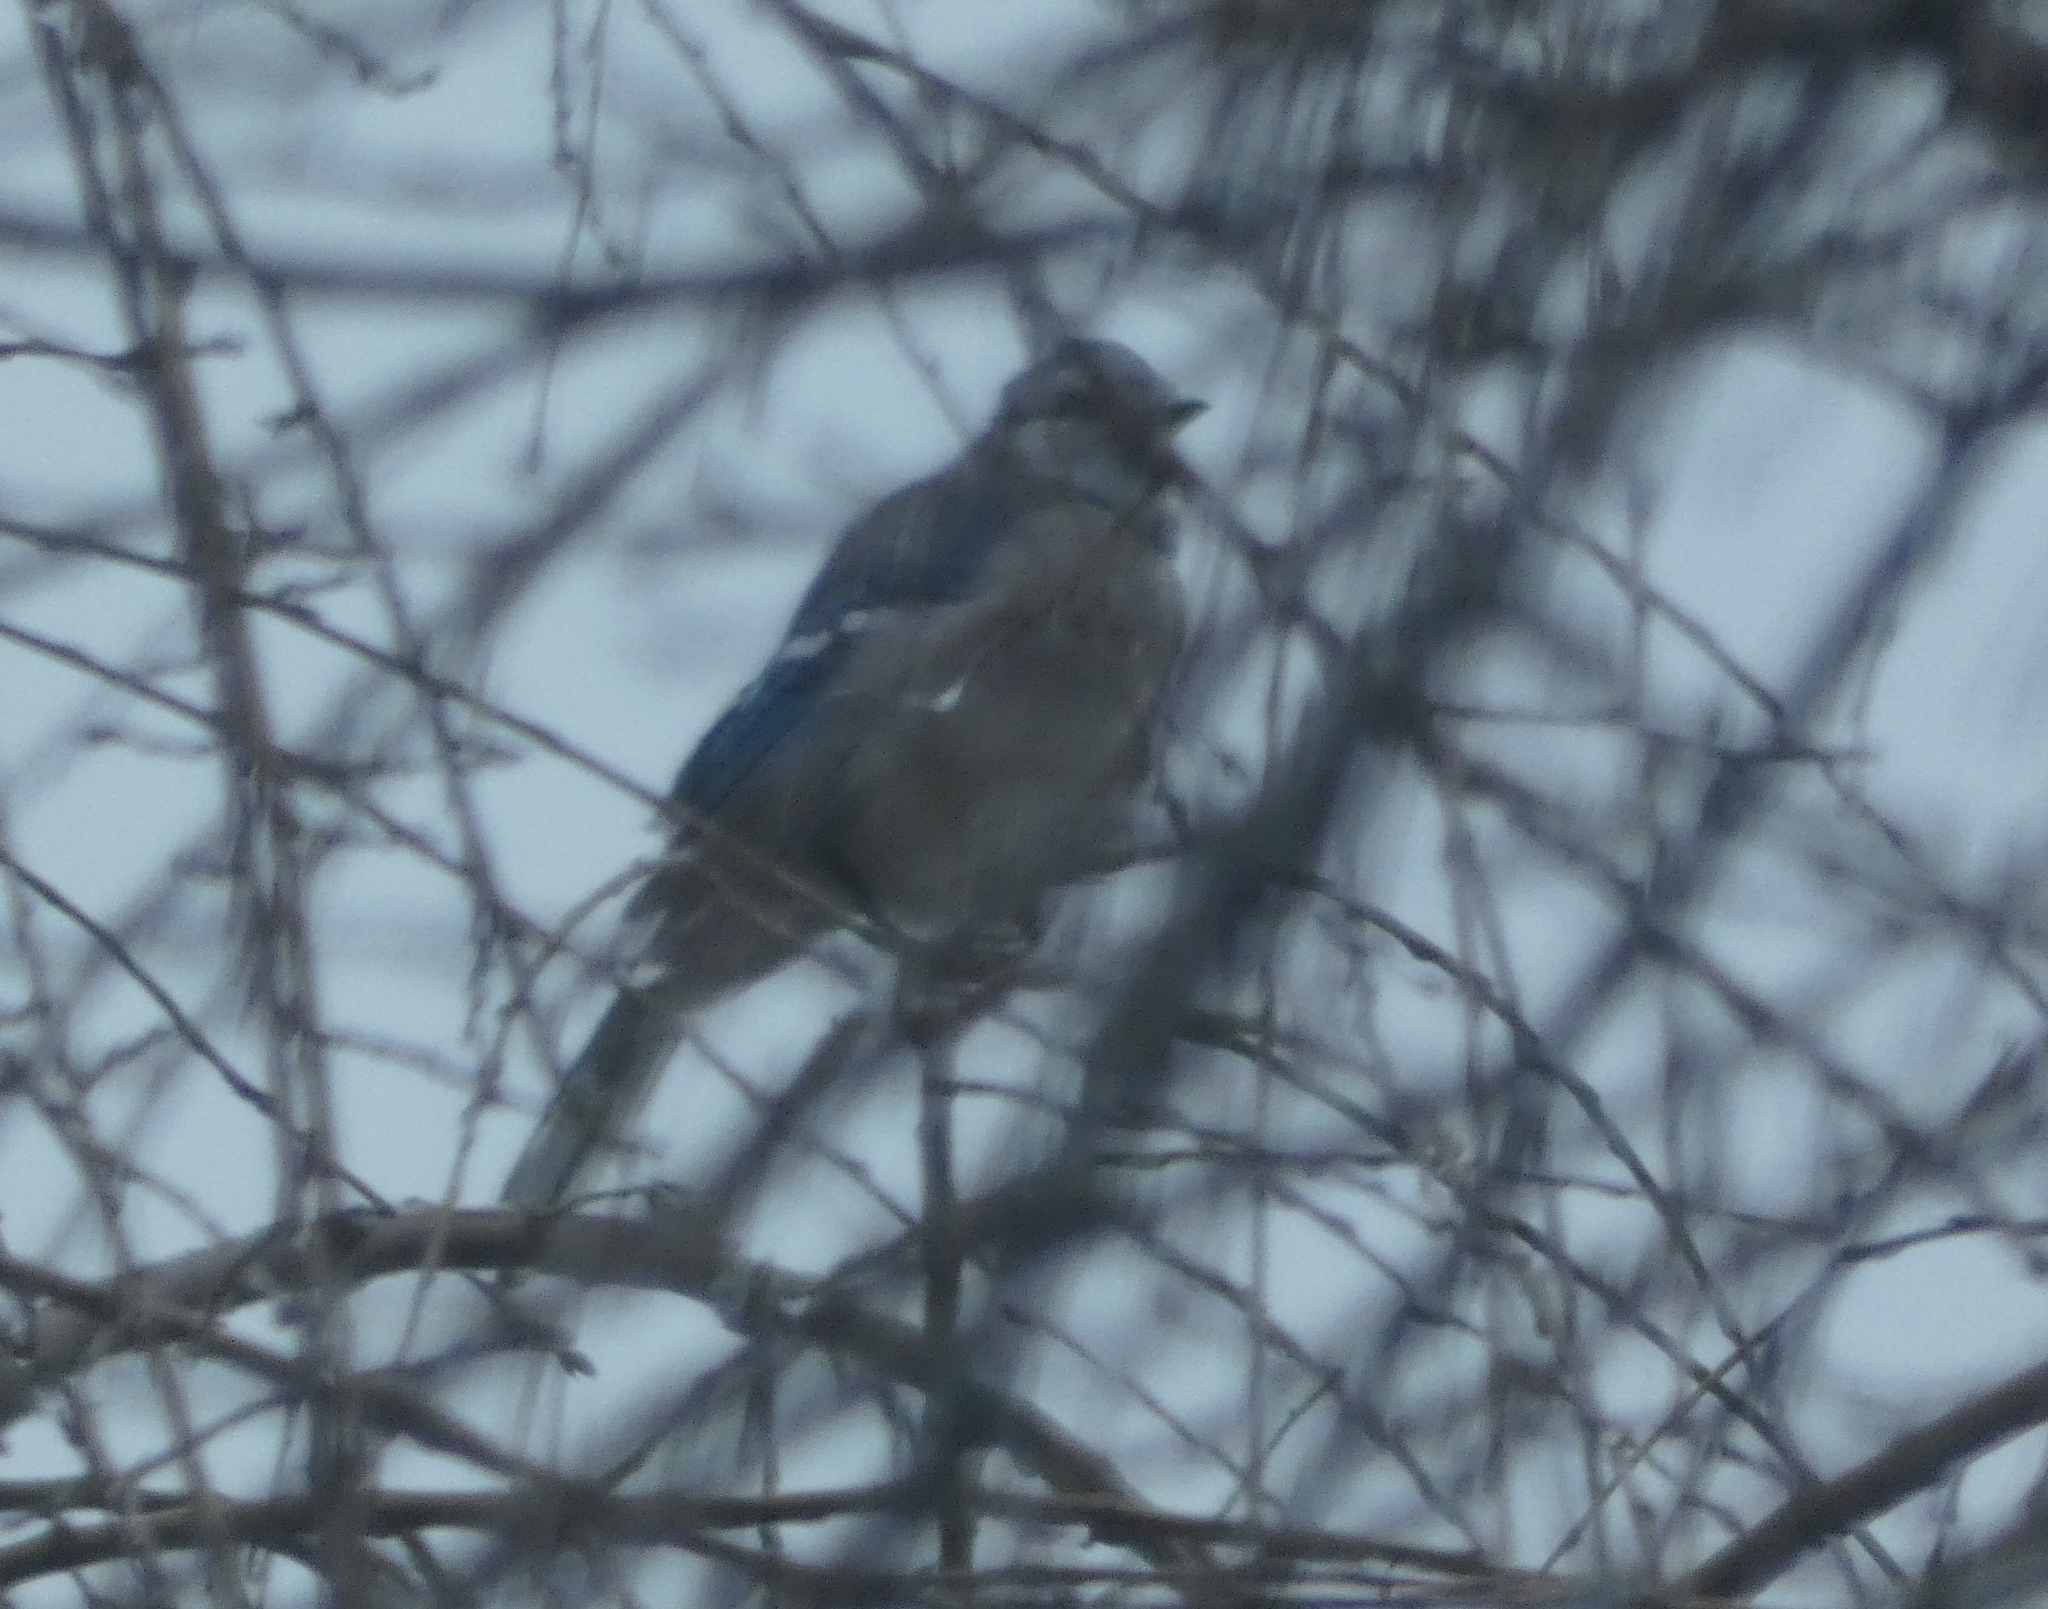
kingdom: Animalia
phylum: Chordata
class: Aves
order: Passeriformes
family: Corvidae
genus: Cyanocitta
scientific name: Cyanocitta cristata
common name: Blue jay
